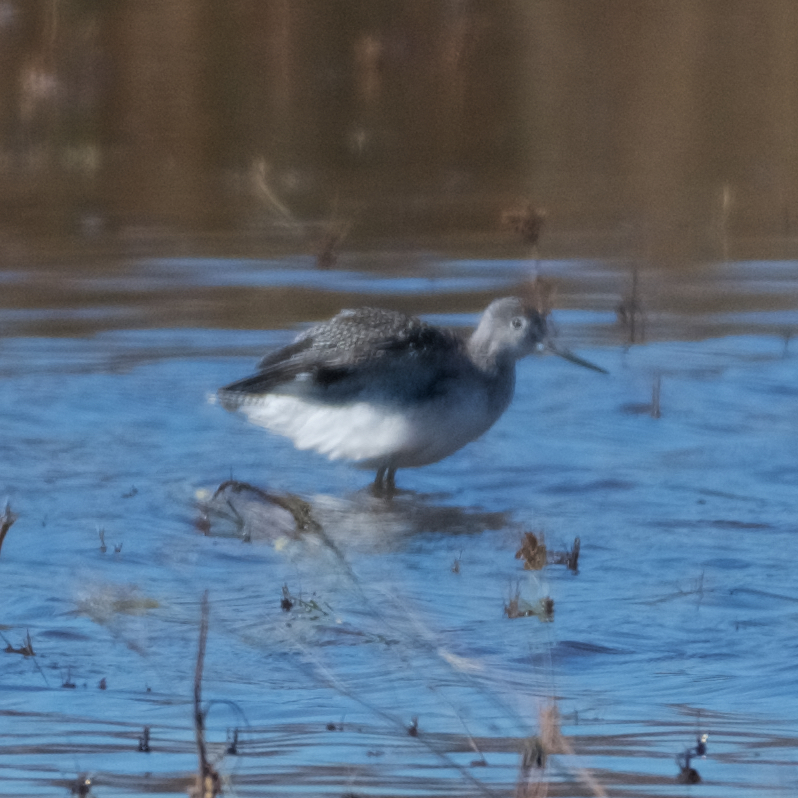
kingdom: Animalia
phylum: Chordata
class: Aves
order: Charadriiformes
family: Scolopacidae
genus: Tringa
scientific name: Tringa melanoleuca
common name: Greater yellowlegs
